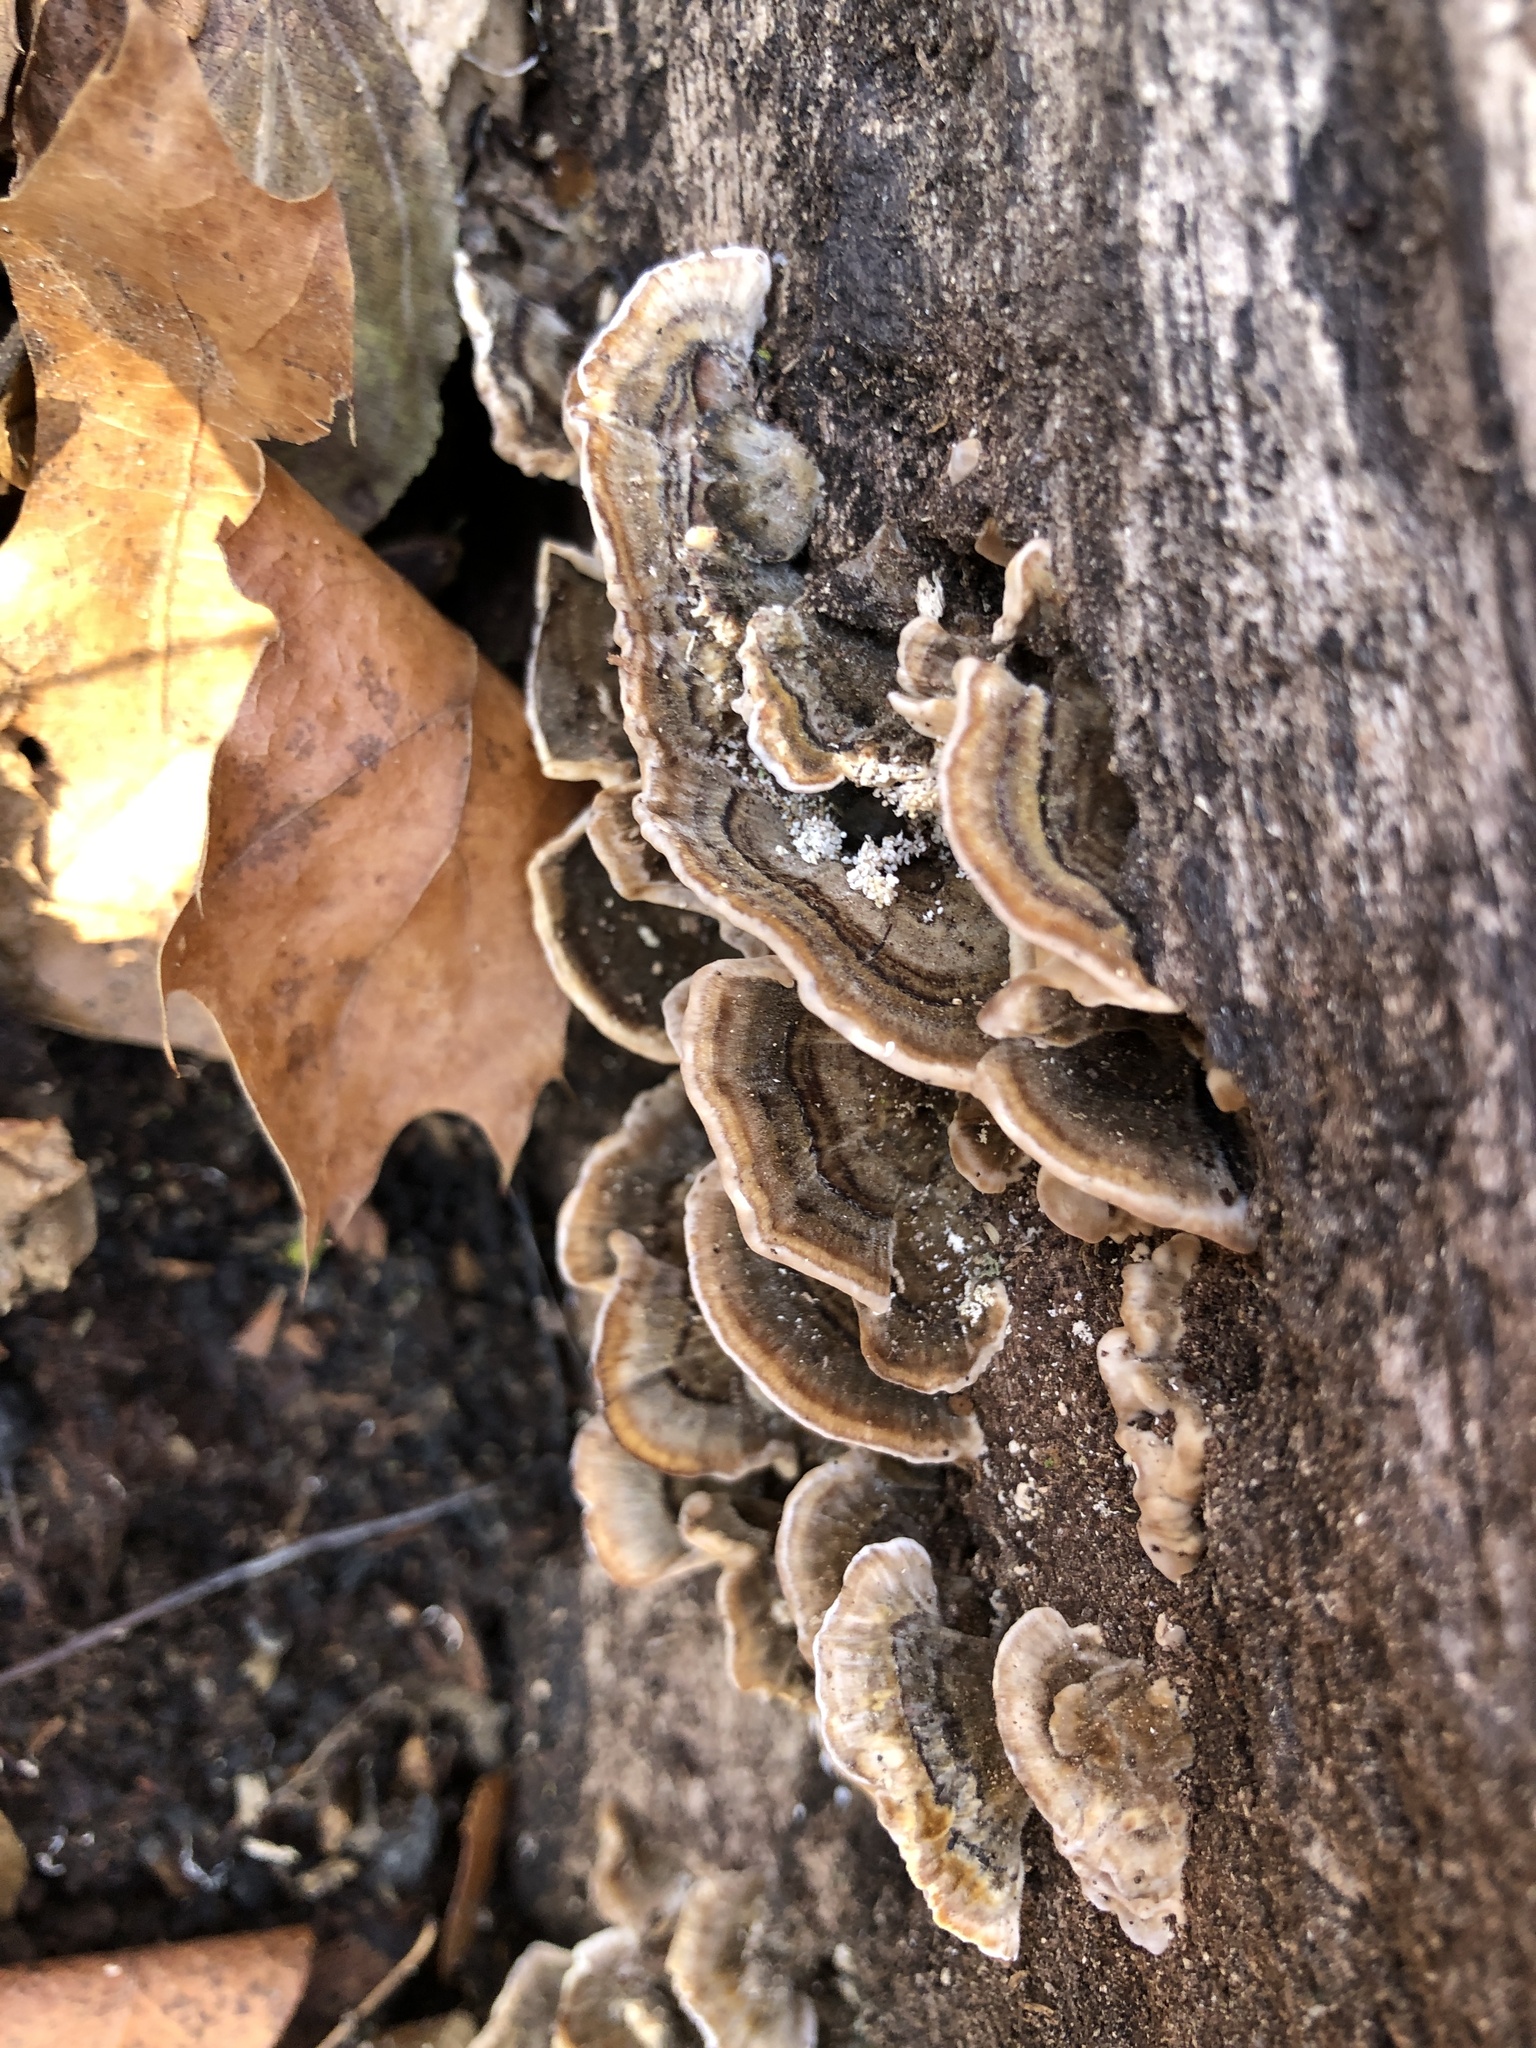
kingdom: Fungi
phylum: Basidiomycota
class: Agaricomycetes
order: Polyporales
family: Polyporaceae
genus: Trametes
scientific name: Trametes versicolor
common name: Turkeytail
